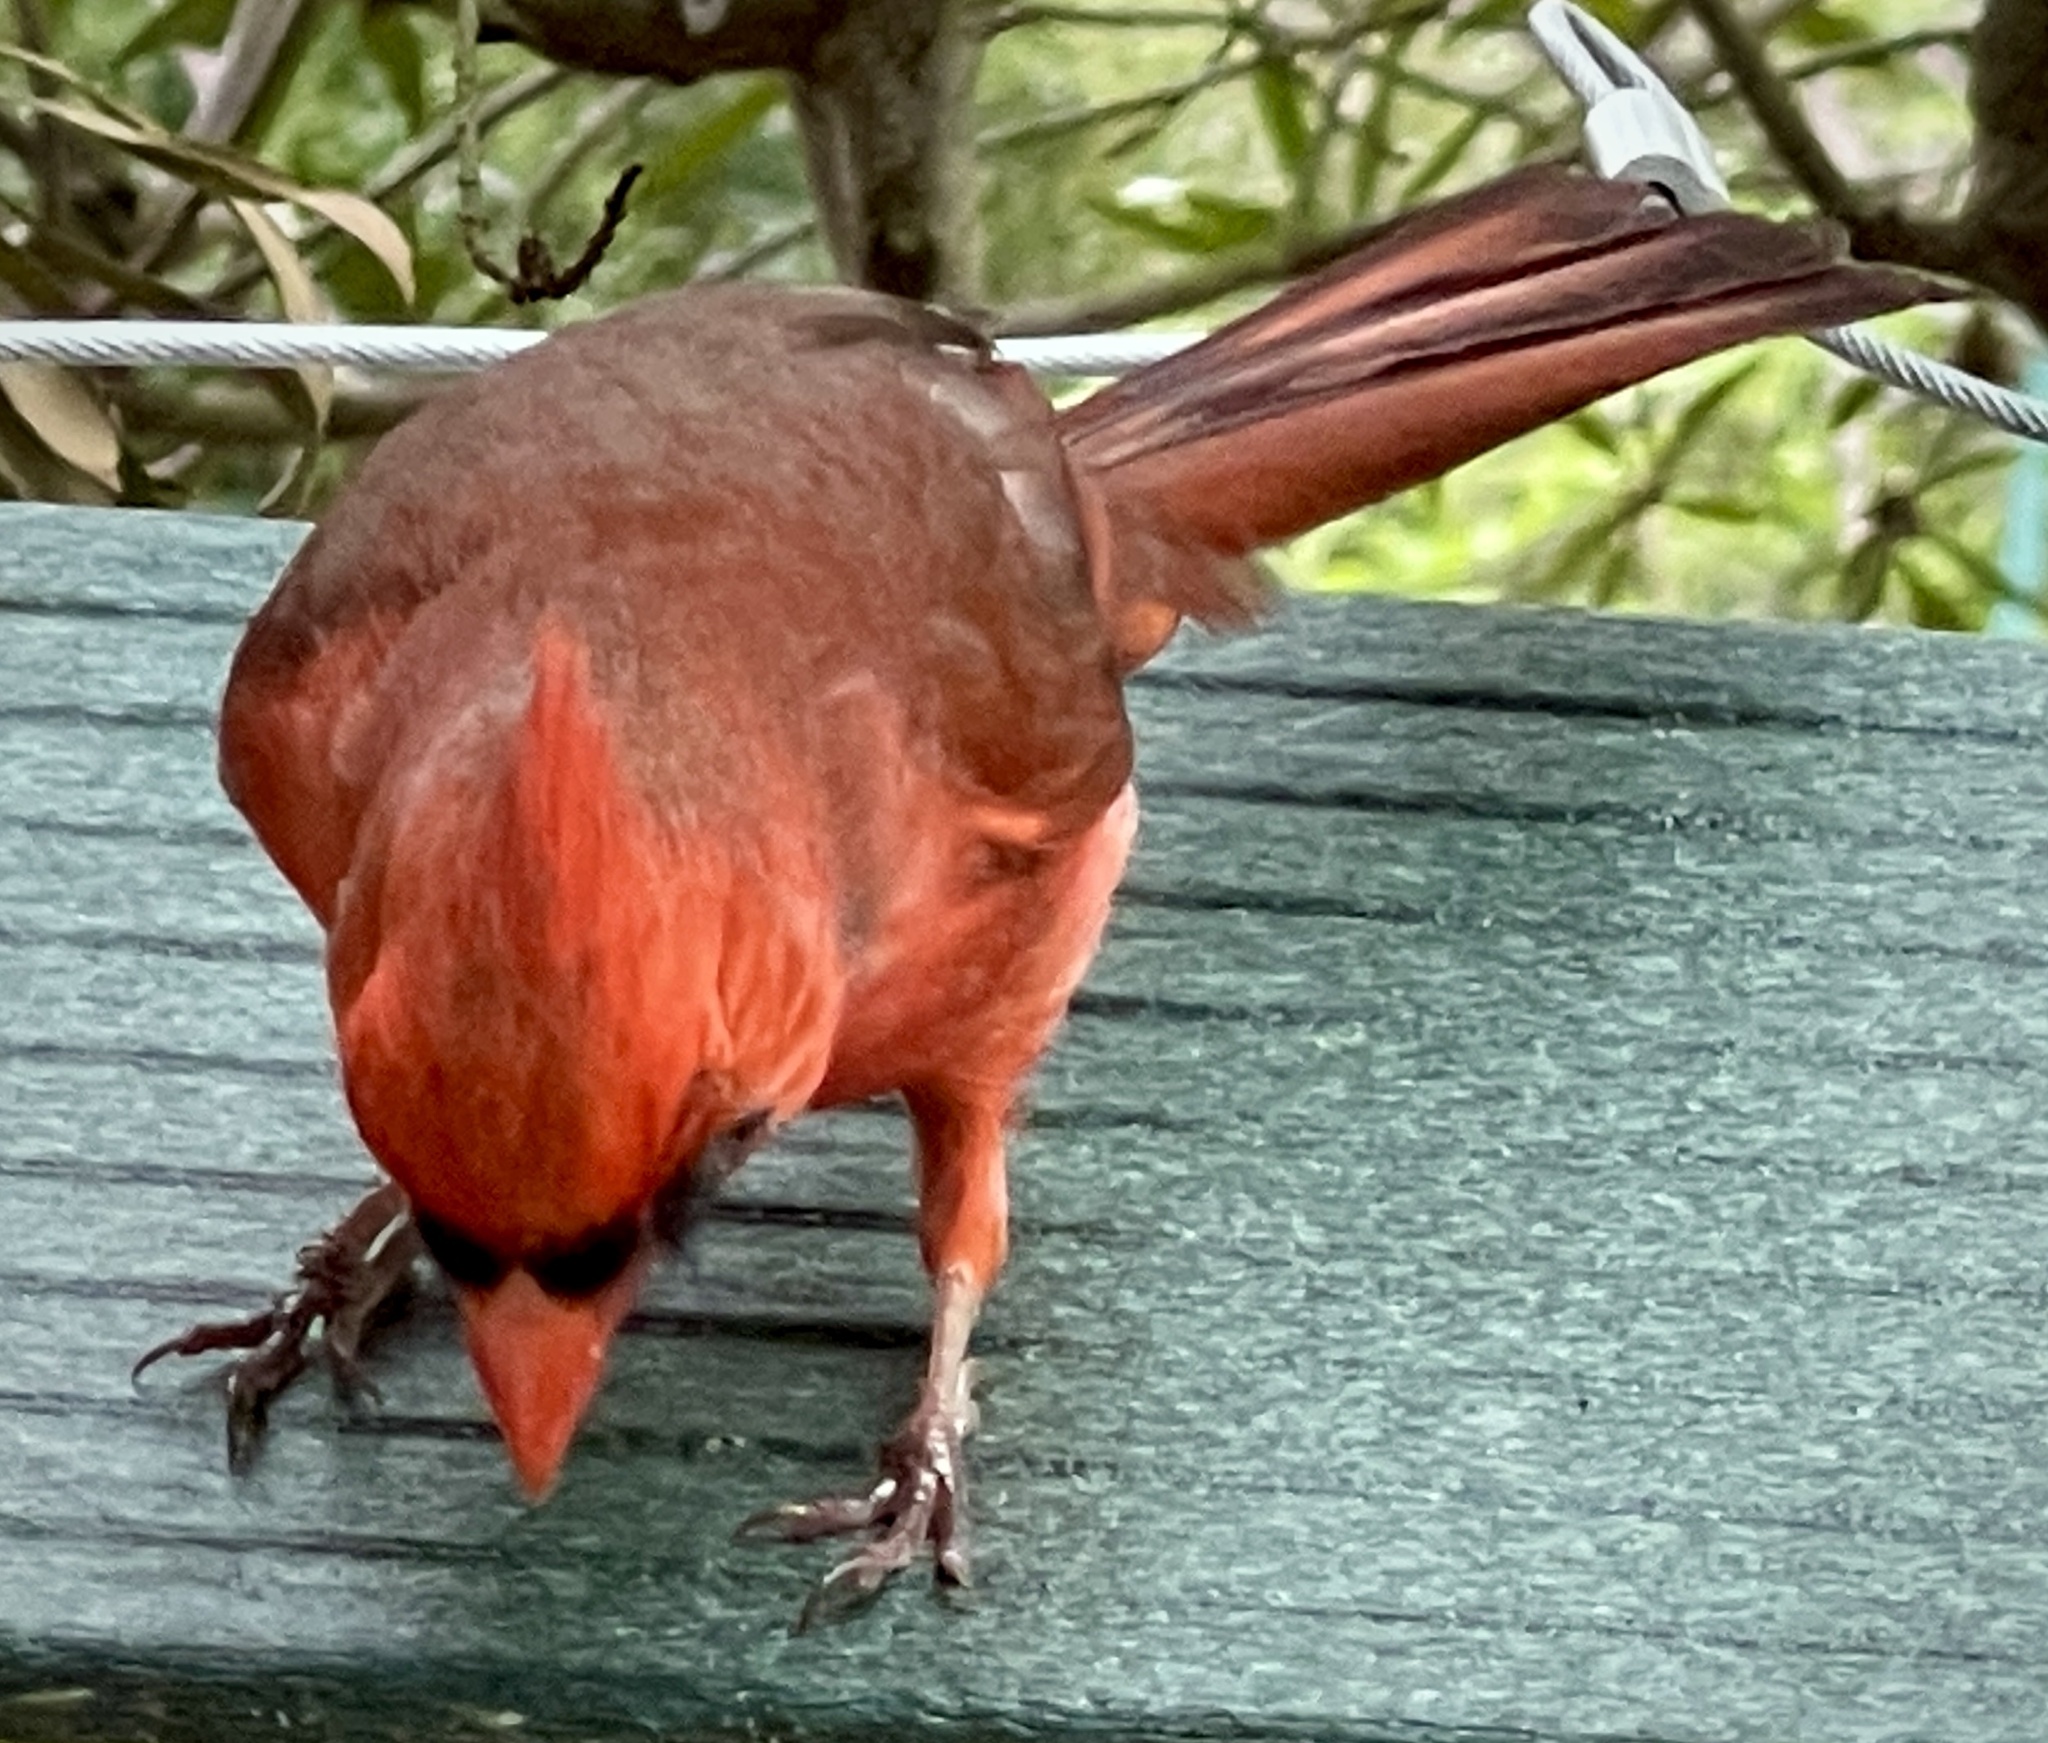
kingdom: Animalia
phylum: Chordata
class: Aves
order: Passeriformes
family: Cardinalidae
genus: Cardinalis
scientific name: Cardinalis cardinalis
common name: Northern cardinal
